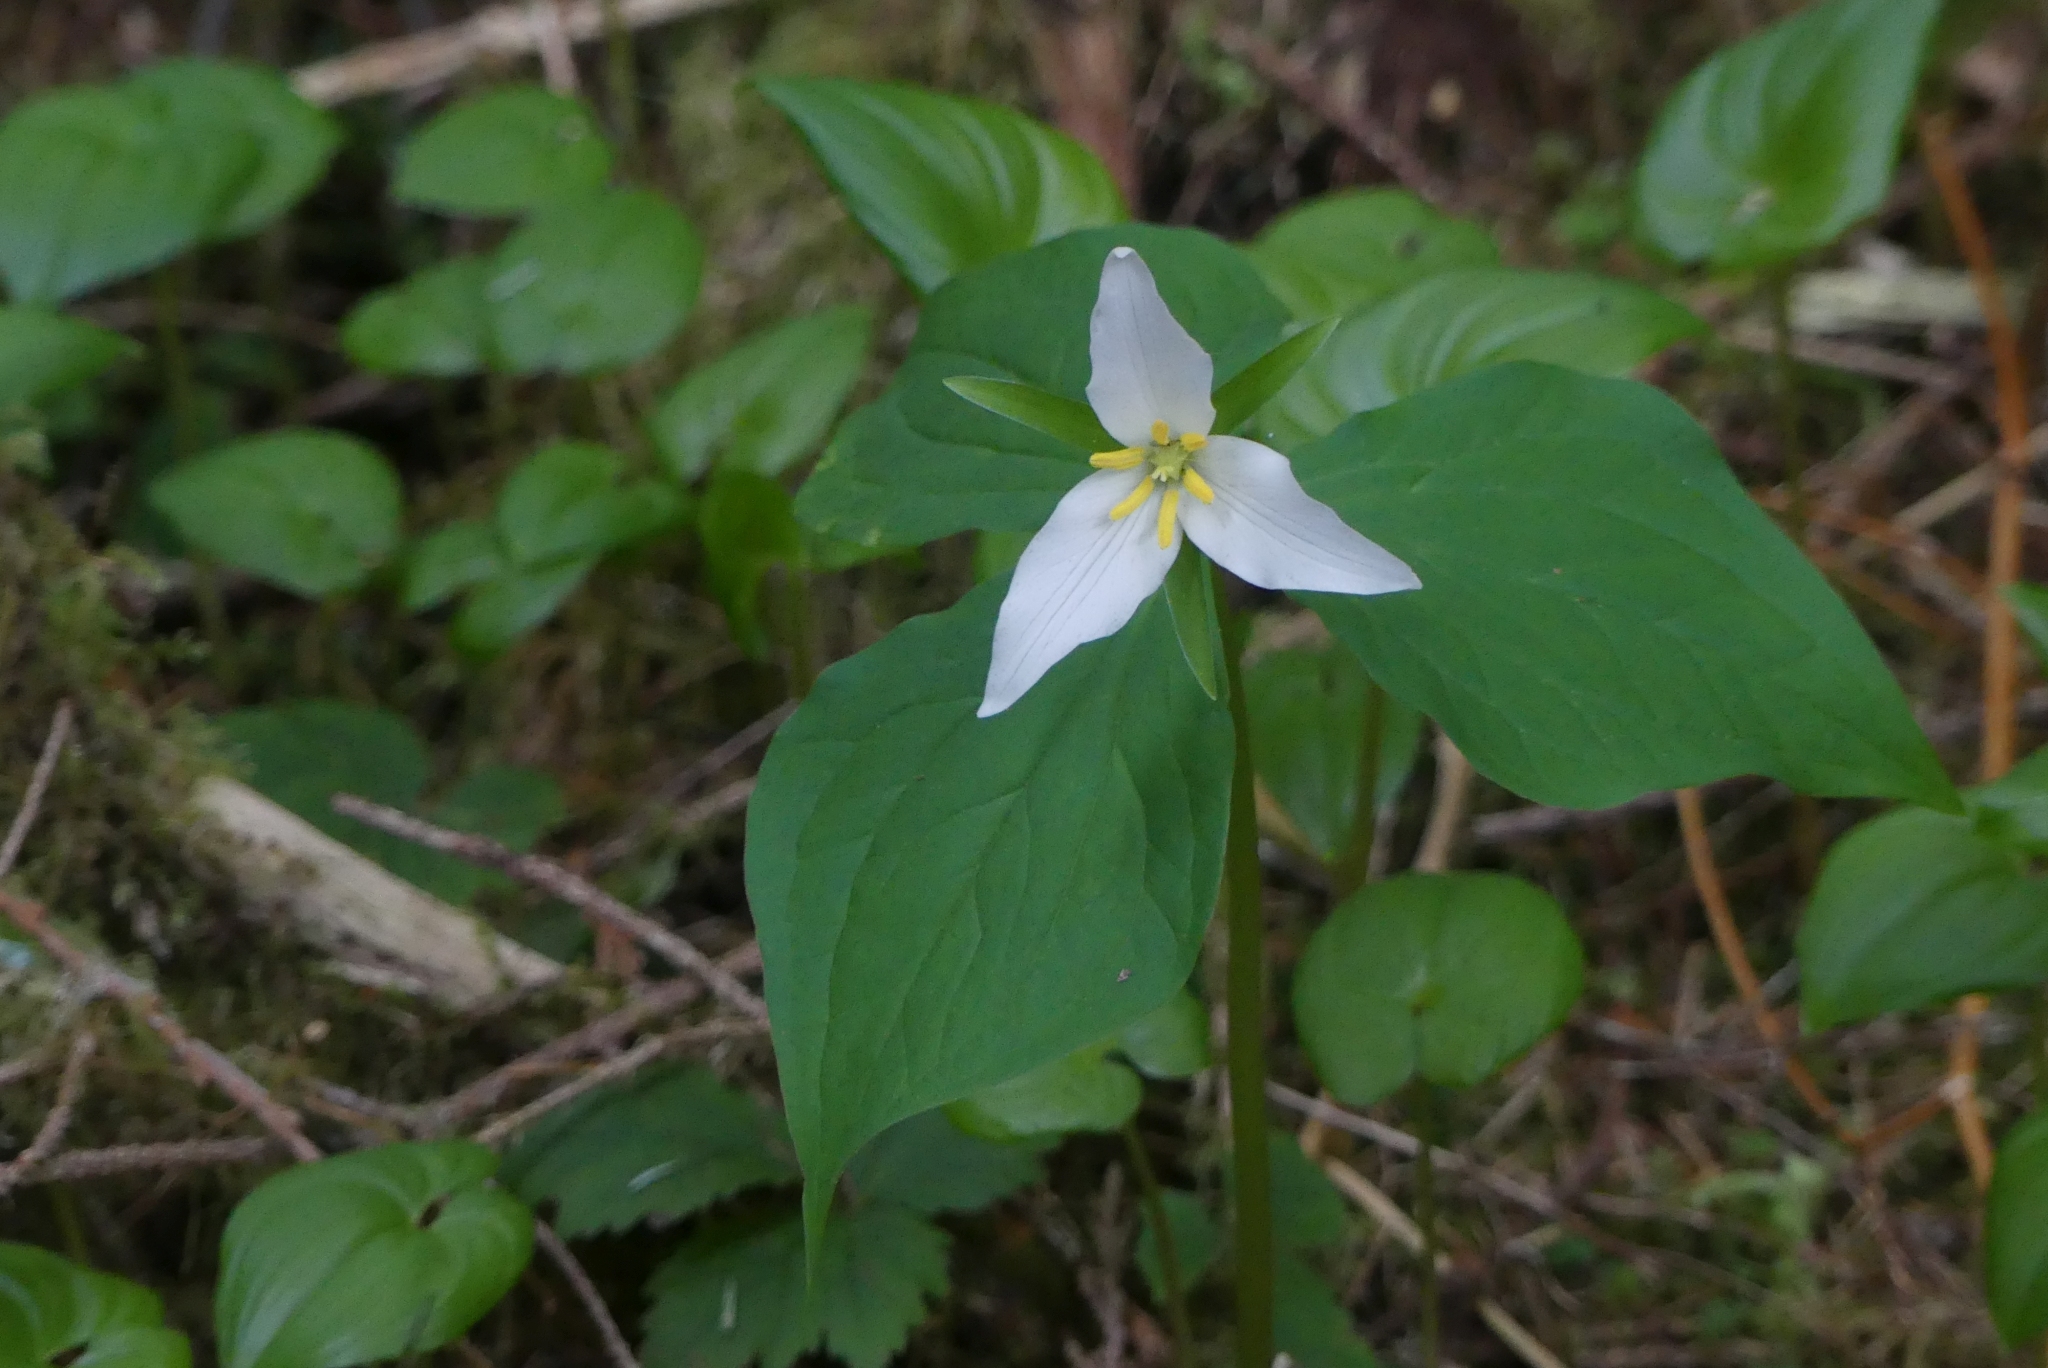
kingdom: Plantae
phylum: Tracheophyta
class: Liliopsida
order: Liliales
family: Melanthiaceae
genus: Trillium
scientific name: Trillium ovatum
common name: Pacific trillium
